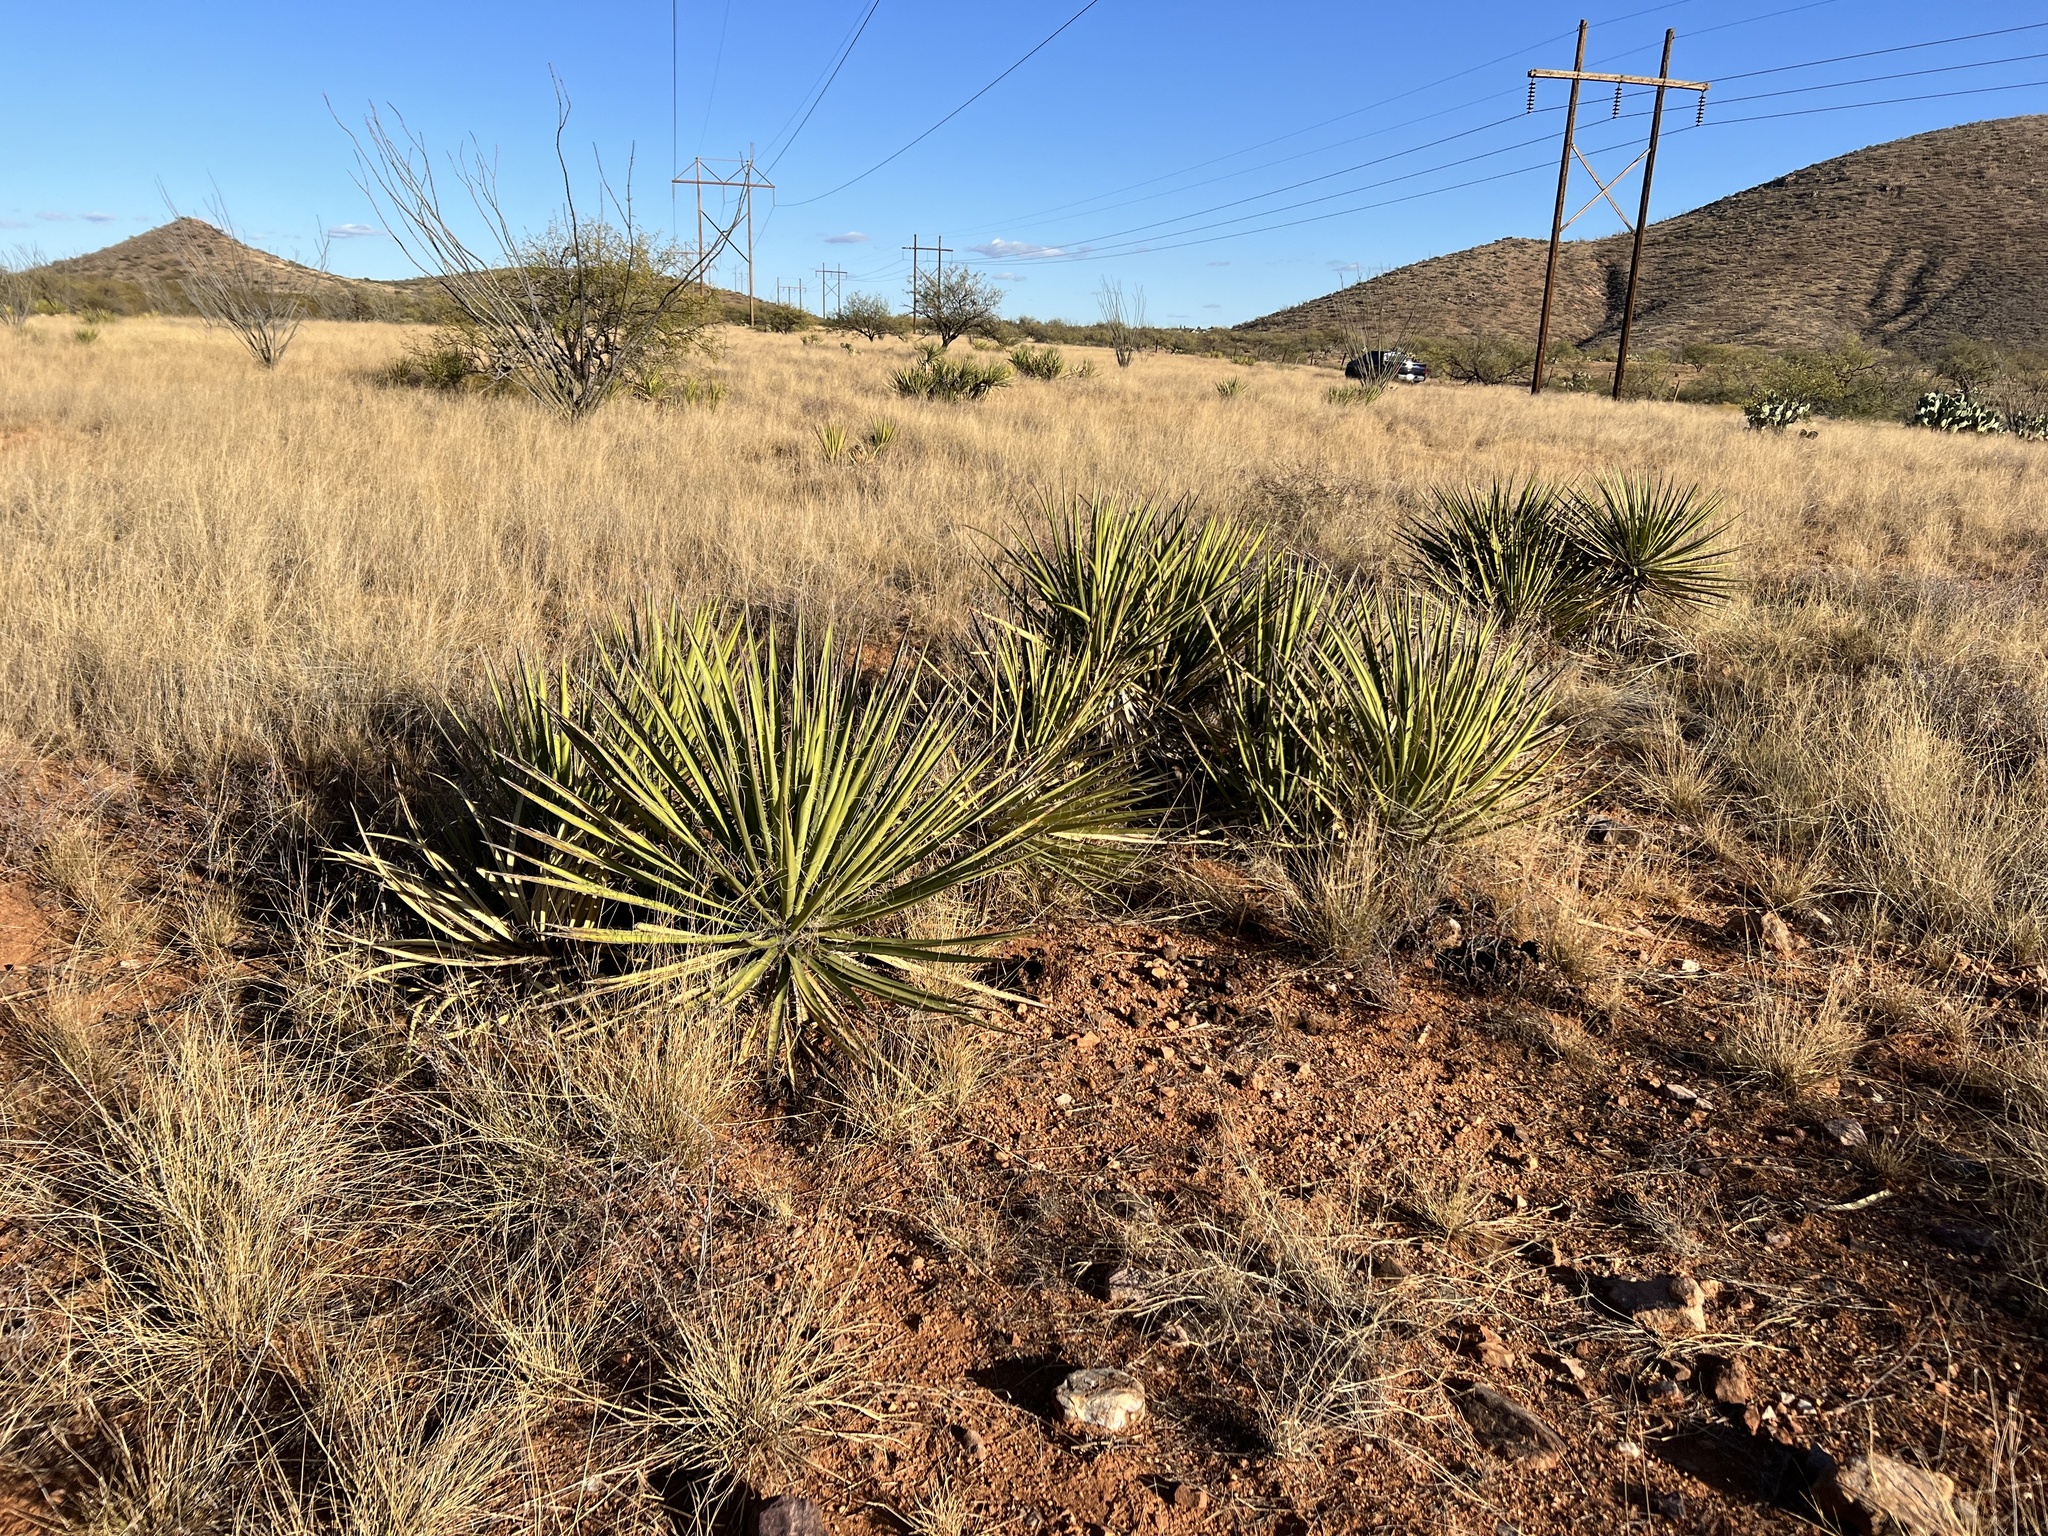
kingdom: Plantae
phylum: Tracheophyta
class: Liliopsida
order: Asparagales
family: Asparagaceae
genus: Yucca
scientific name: Yucca baccata
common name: Banana yucca
